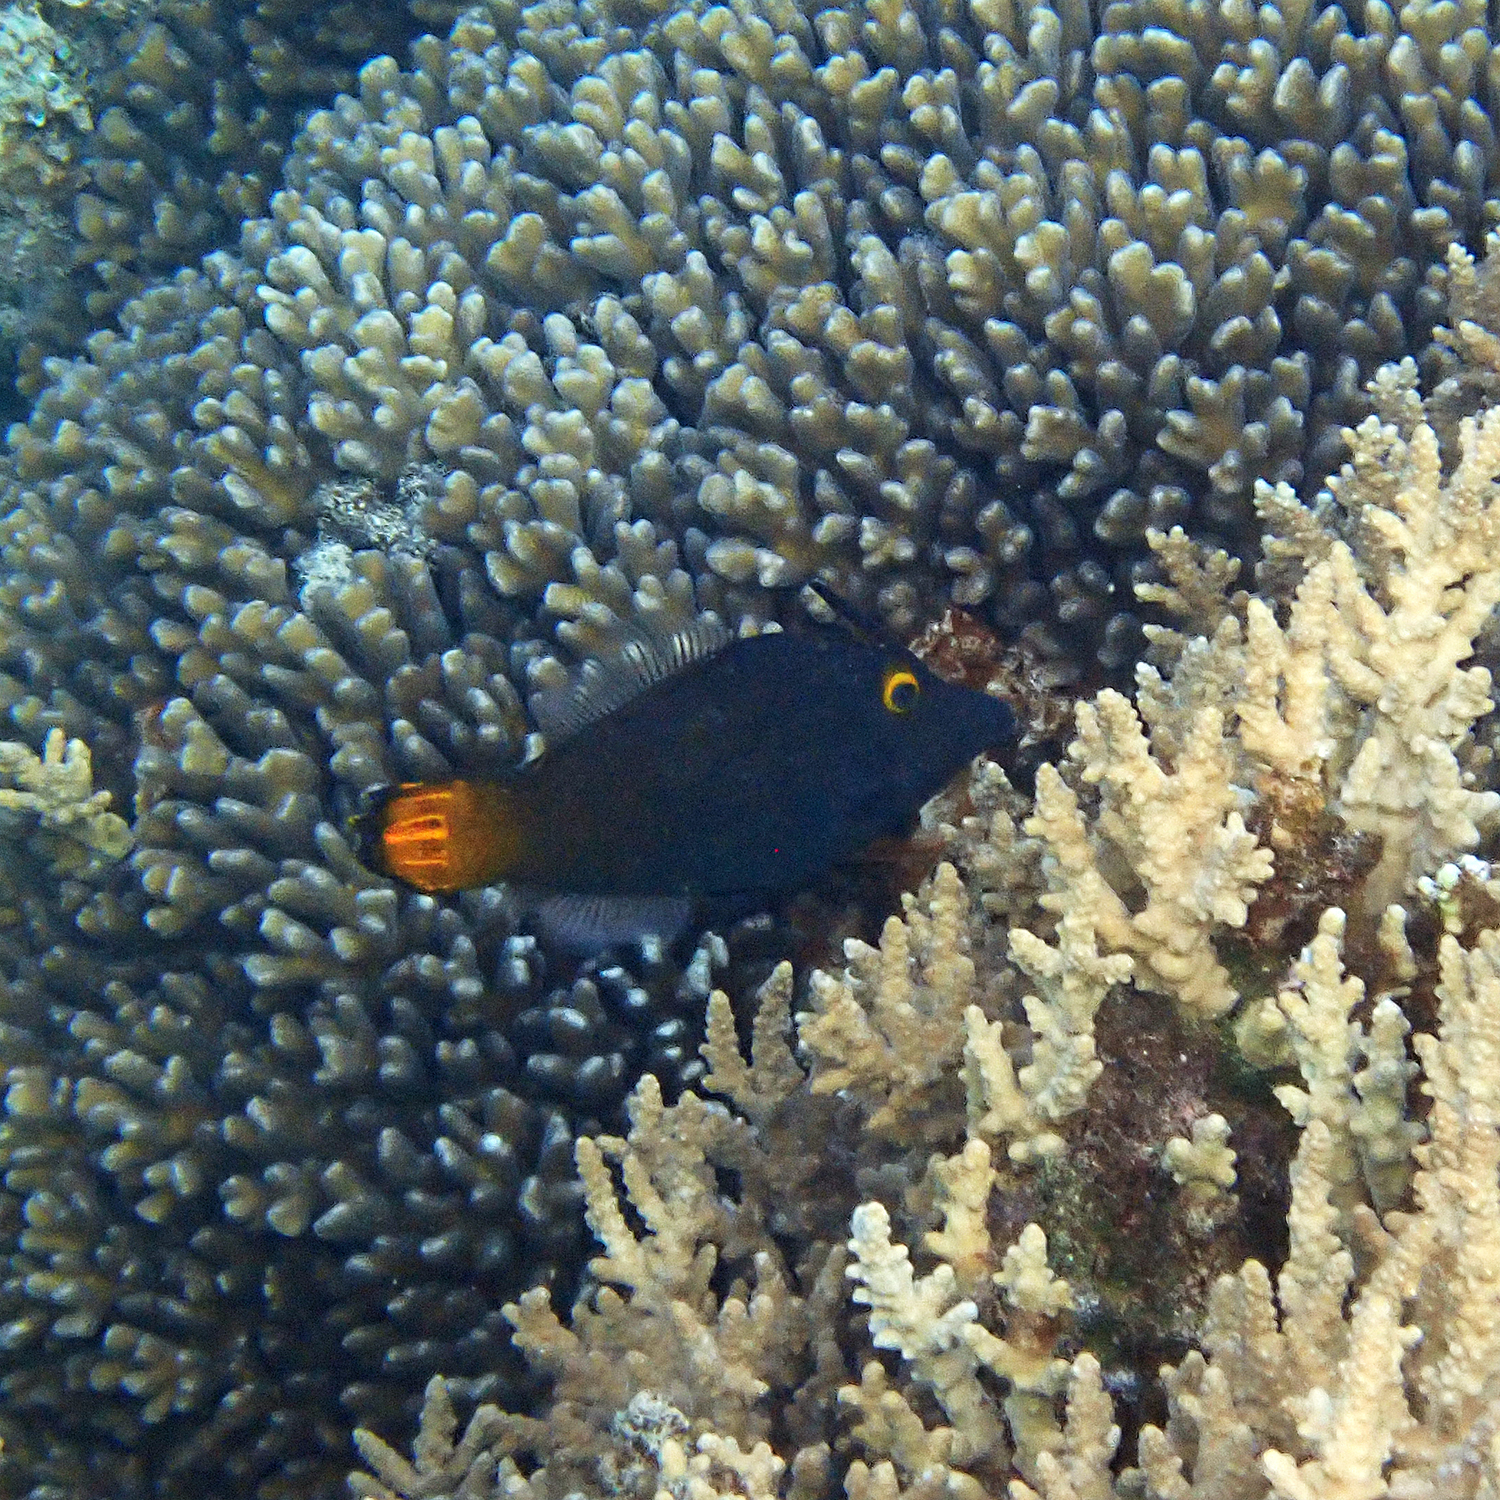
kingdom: Animalia
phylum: Chordata
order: Tetraodontiformes
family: Monacanthidae
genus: Pervagor
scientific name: Pervagor alternans
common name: Yelloweye filefish
